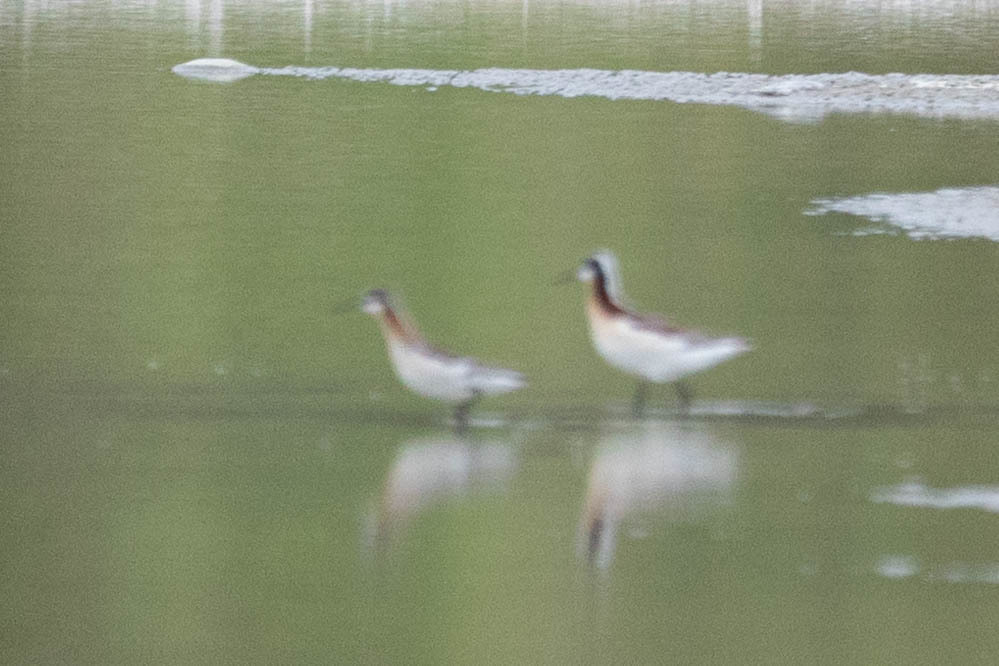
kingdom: Animalia
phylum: Chordata
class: Aves
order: Charadriiformes
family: Scolopacidae
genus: Phalaropus
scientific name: Phalaropus tricolor
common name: Wilson's phalarope
